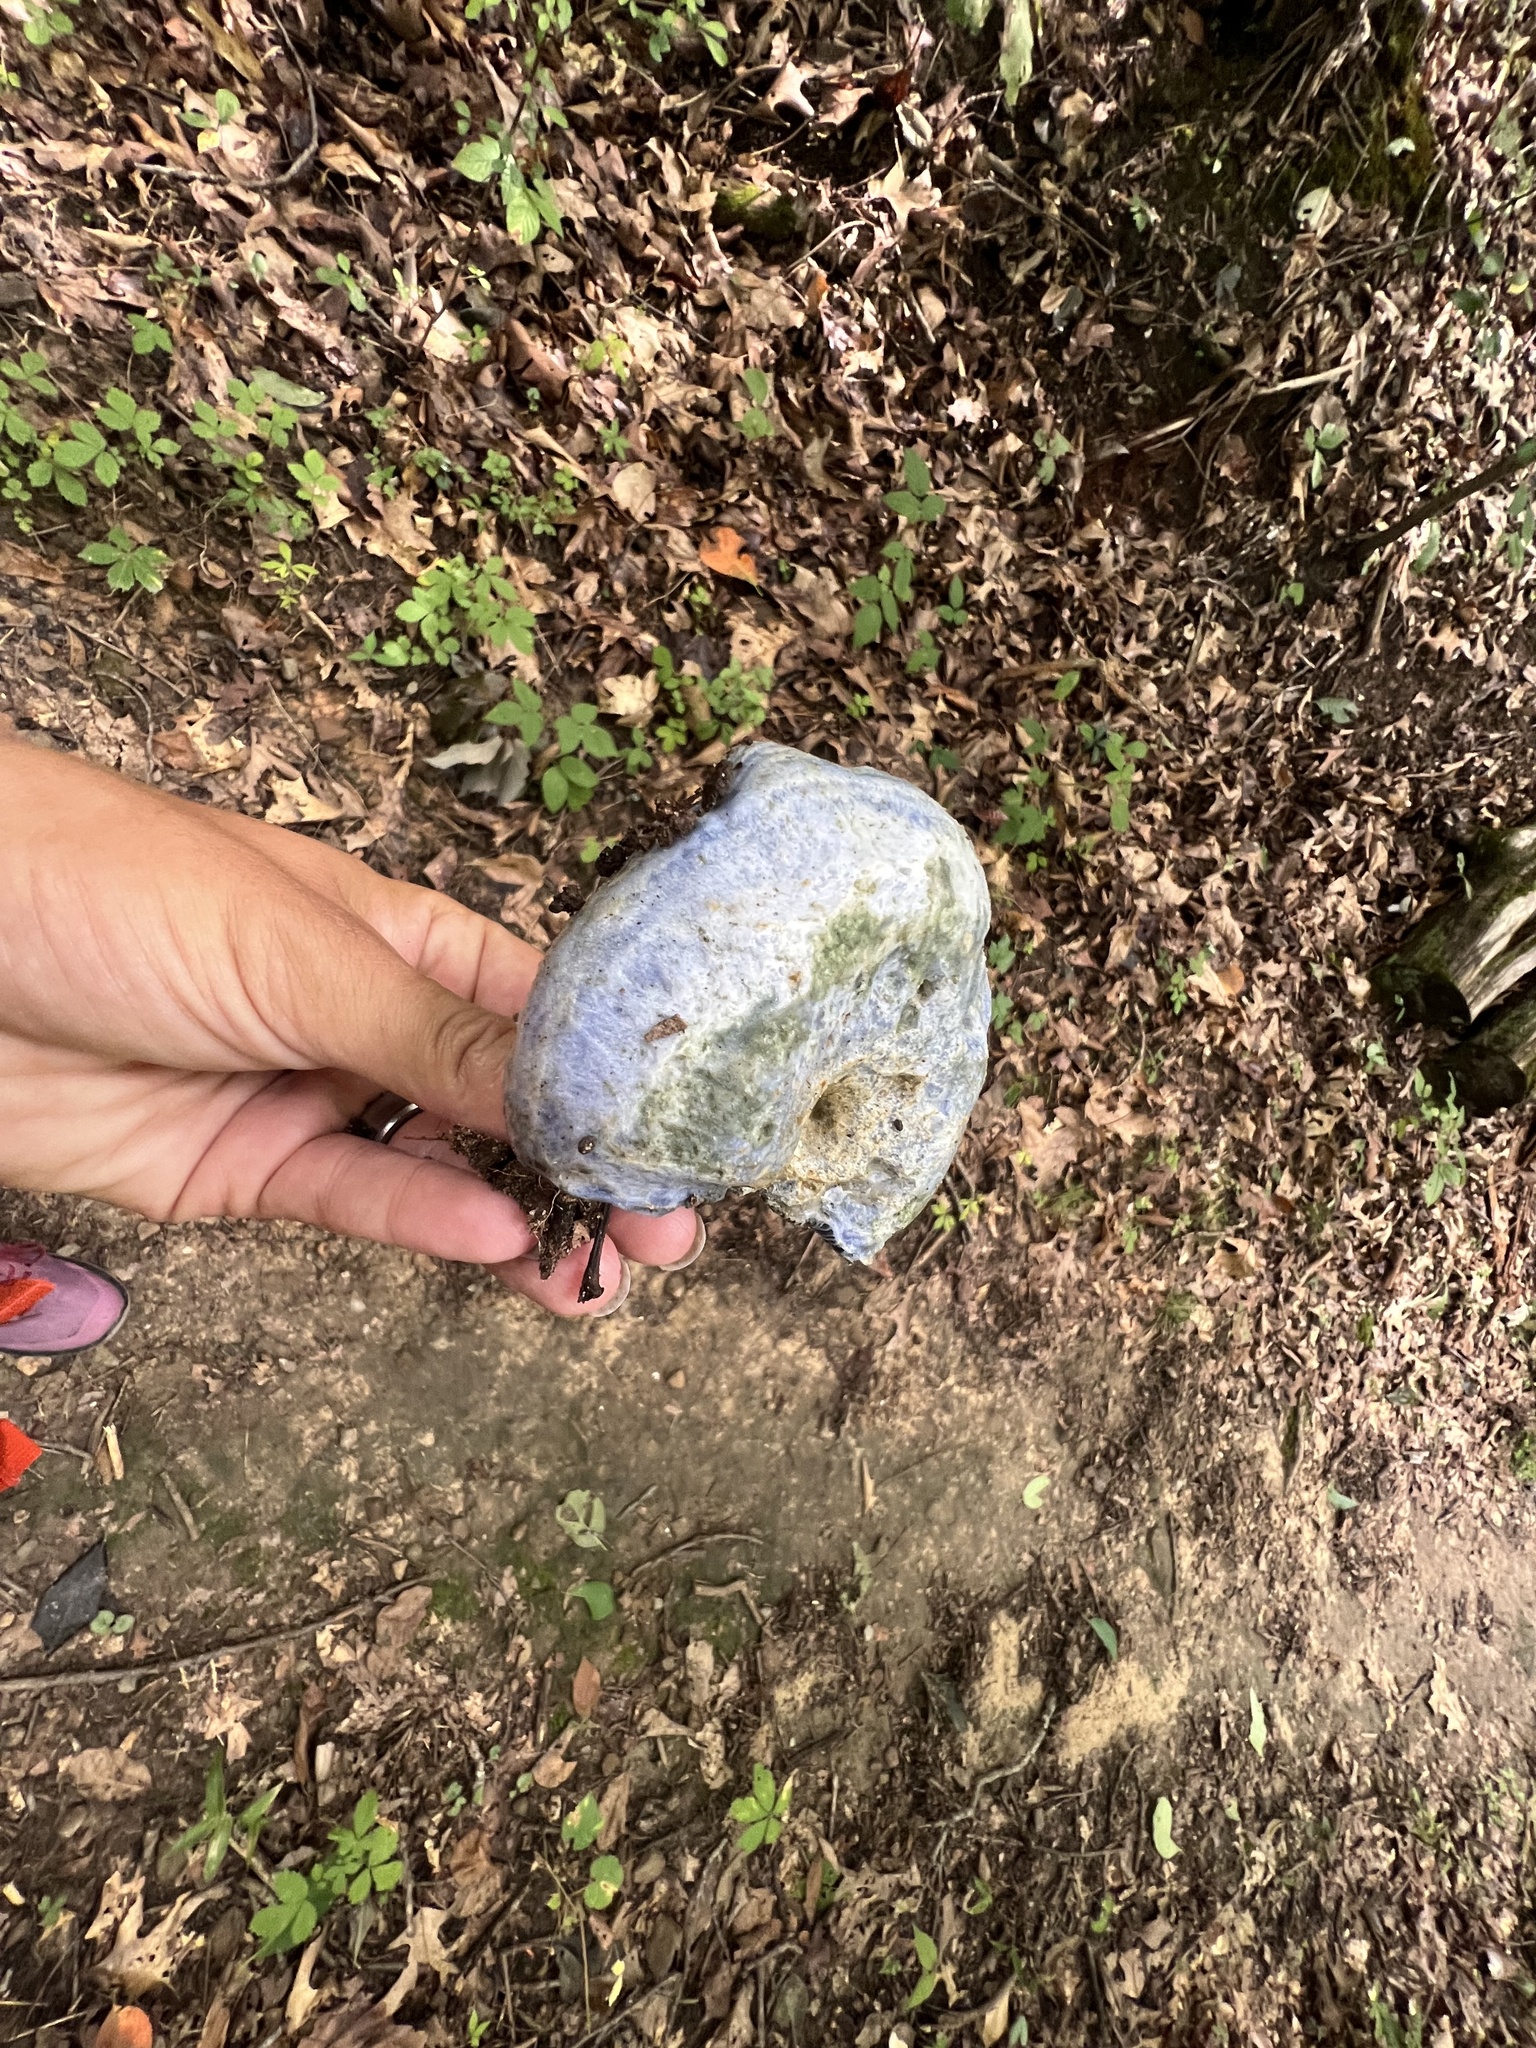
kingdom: Fungi
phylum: Basidiomycota
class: Agaricomycetes
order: Russulales
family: Russulaceae
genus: Lactarius
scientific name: Lactarius indigo
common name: Indigo milk cap
